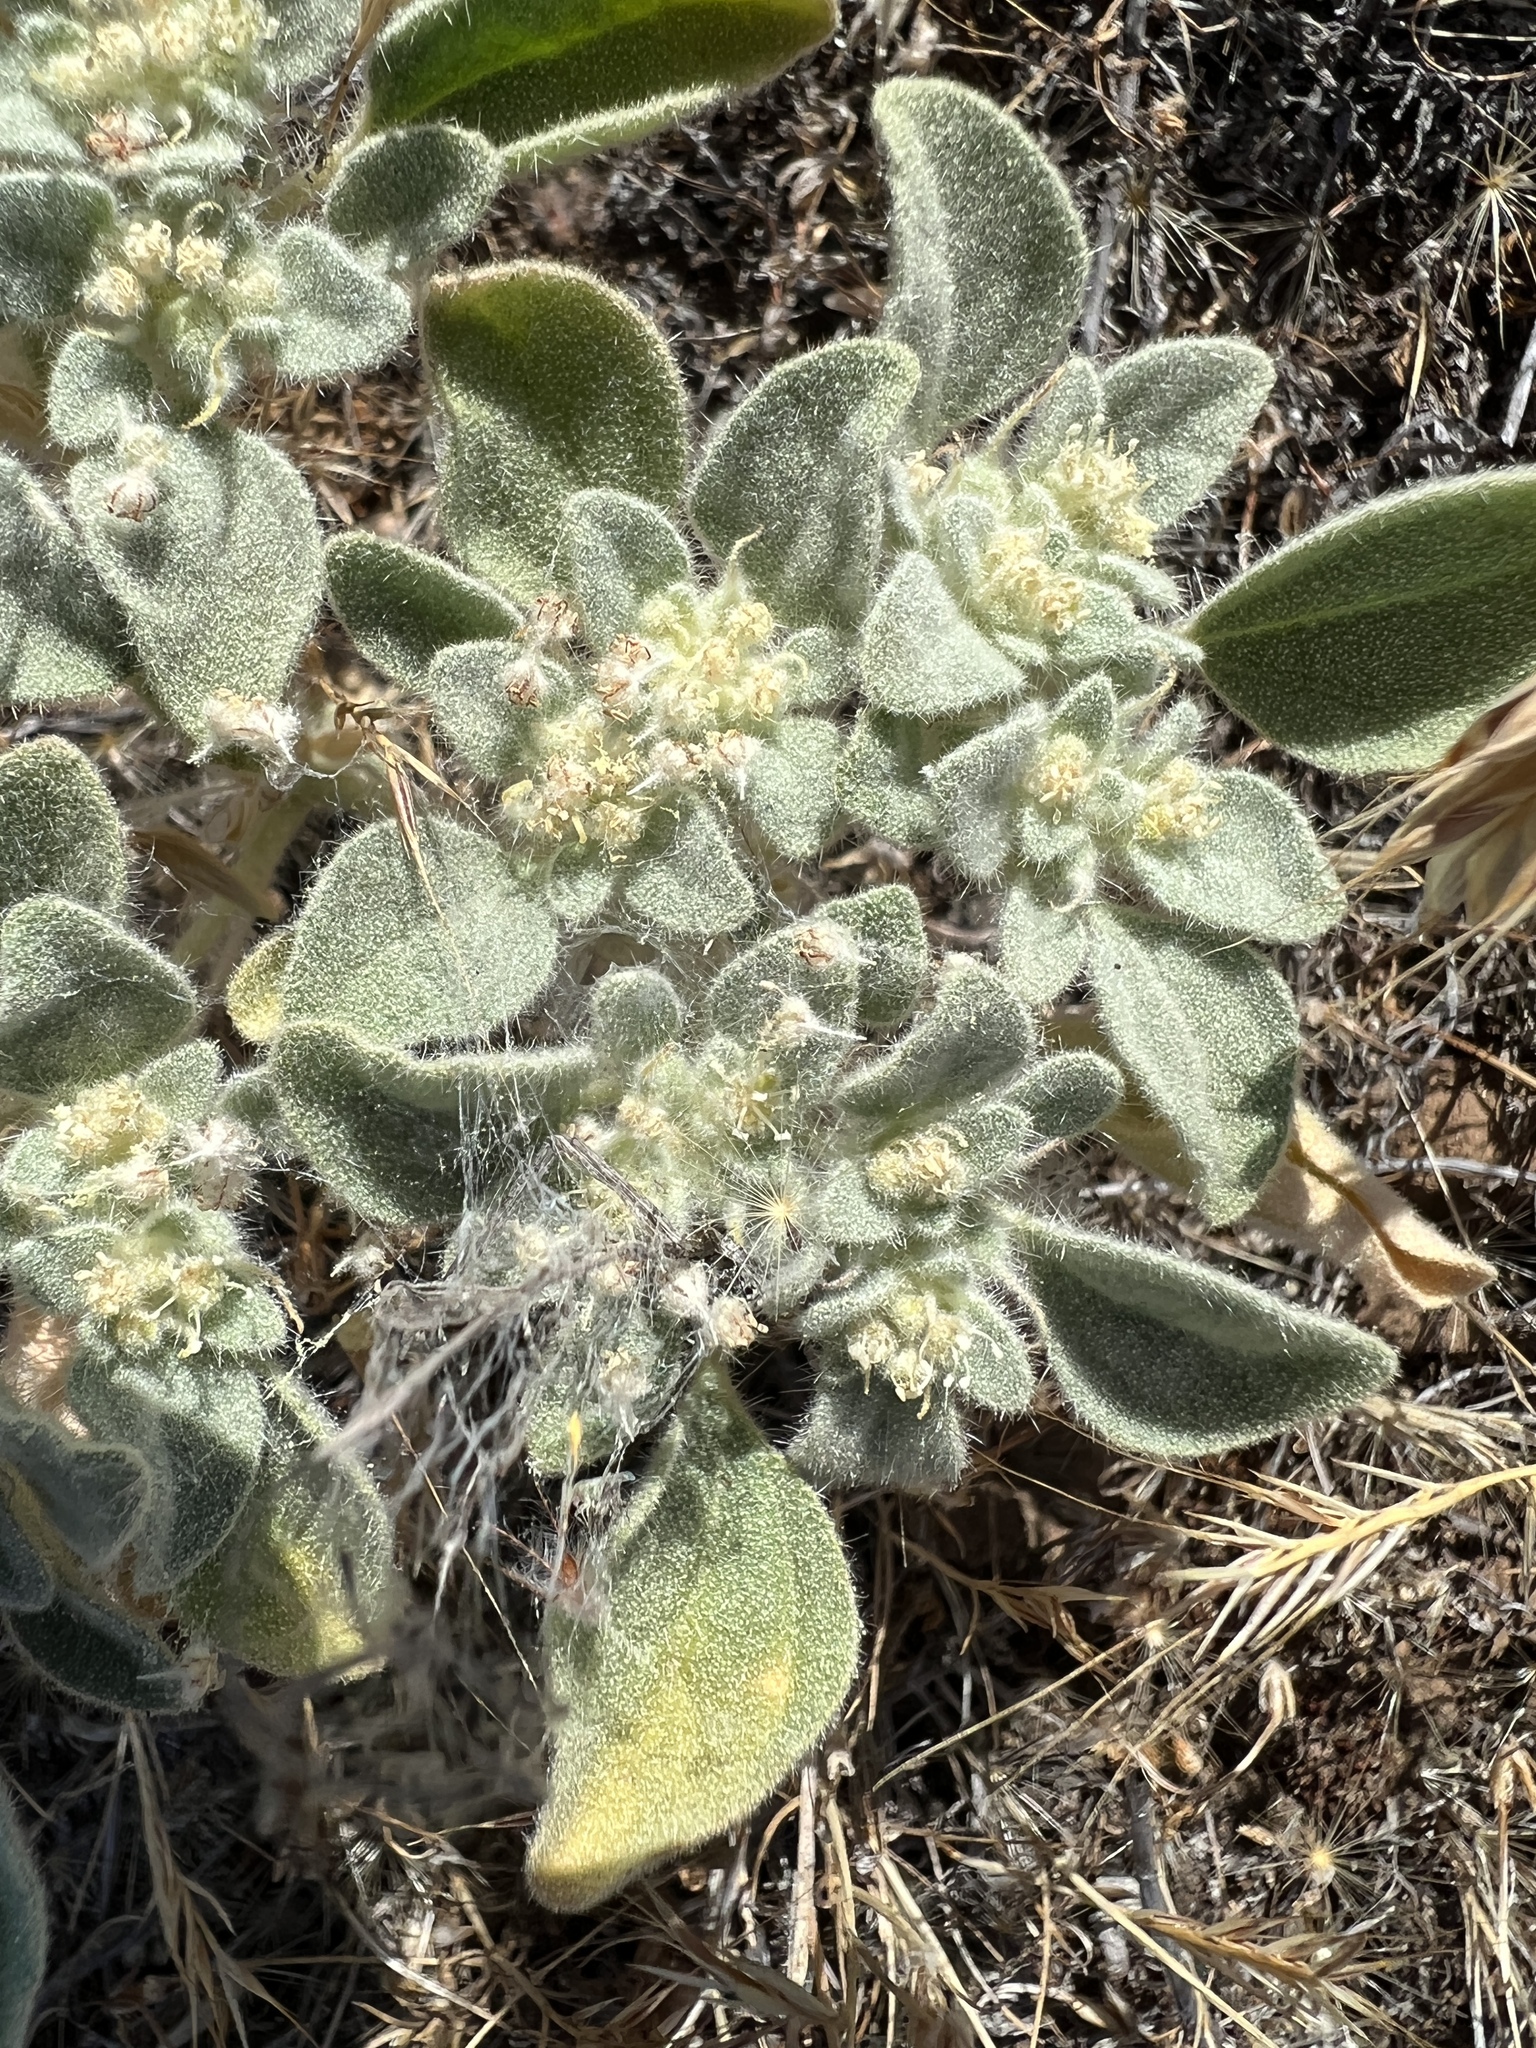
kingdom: Plantae
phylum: Tracheophyta
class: Magnoliopsida
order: Malpighiales
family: Euphorbiaceae
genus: Croton
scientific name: Croton setiger
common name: Dove weed
